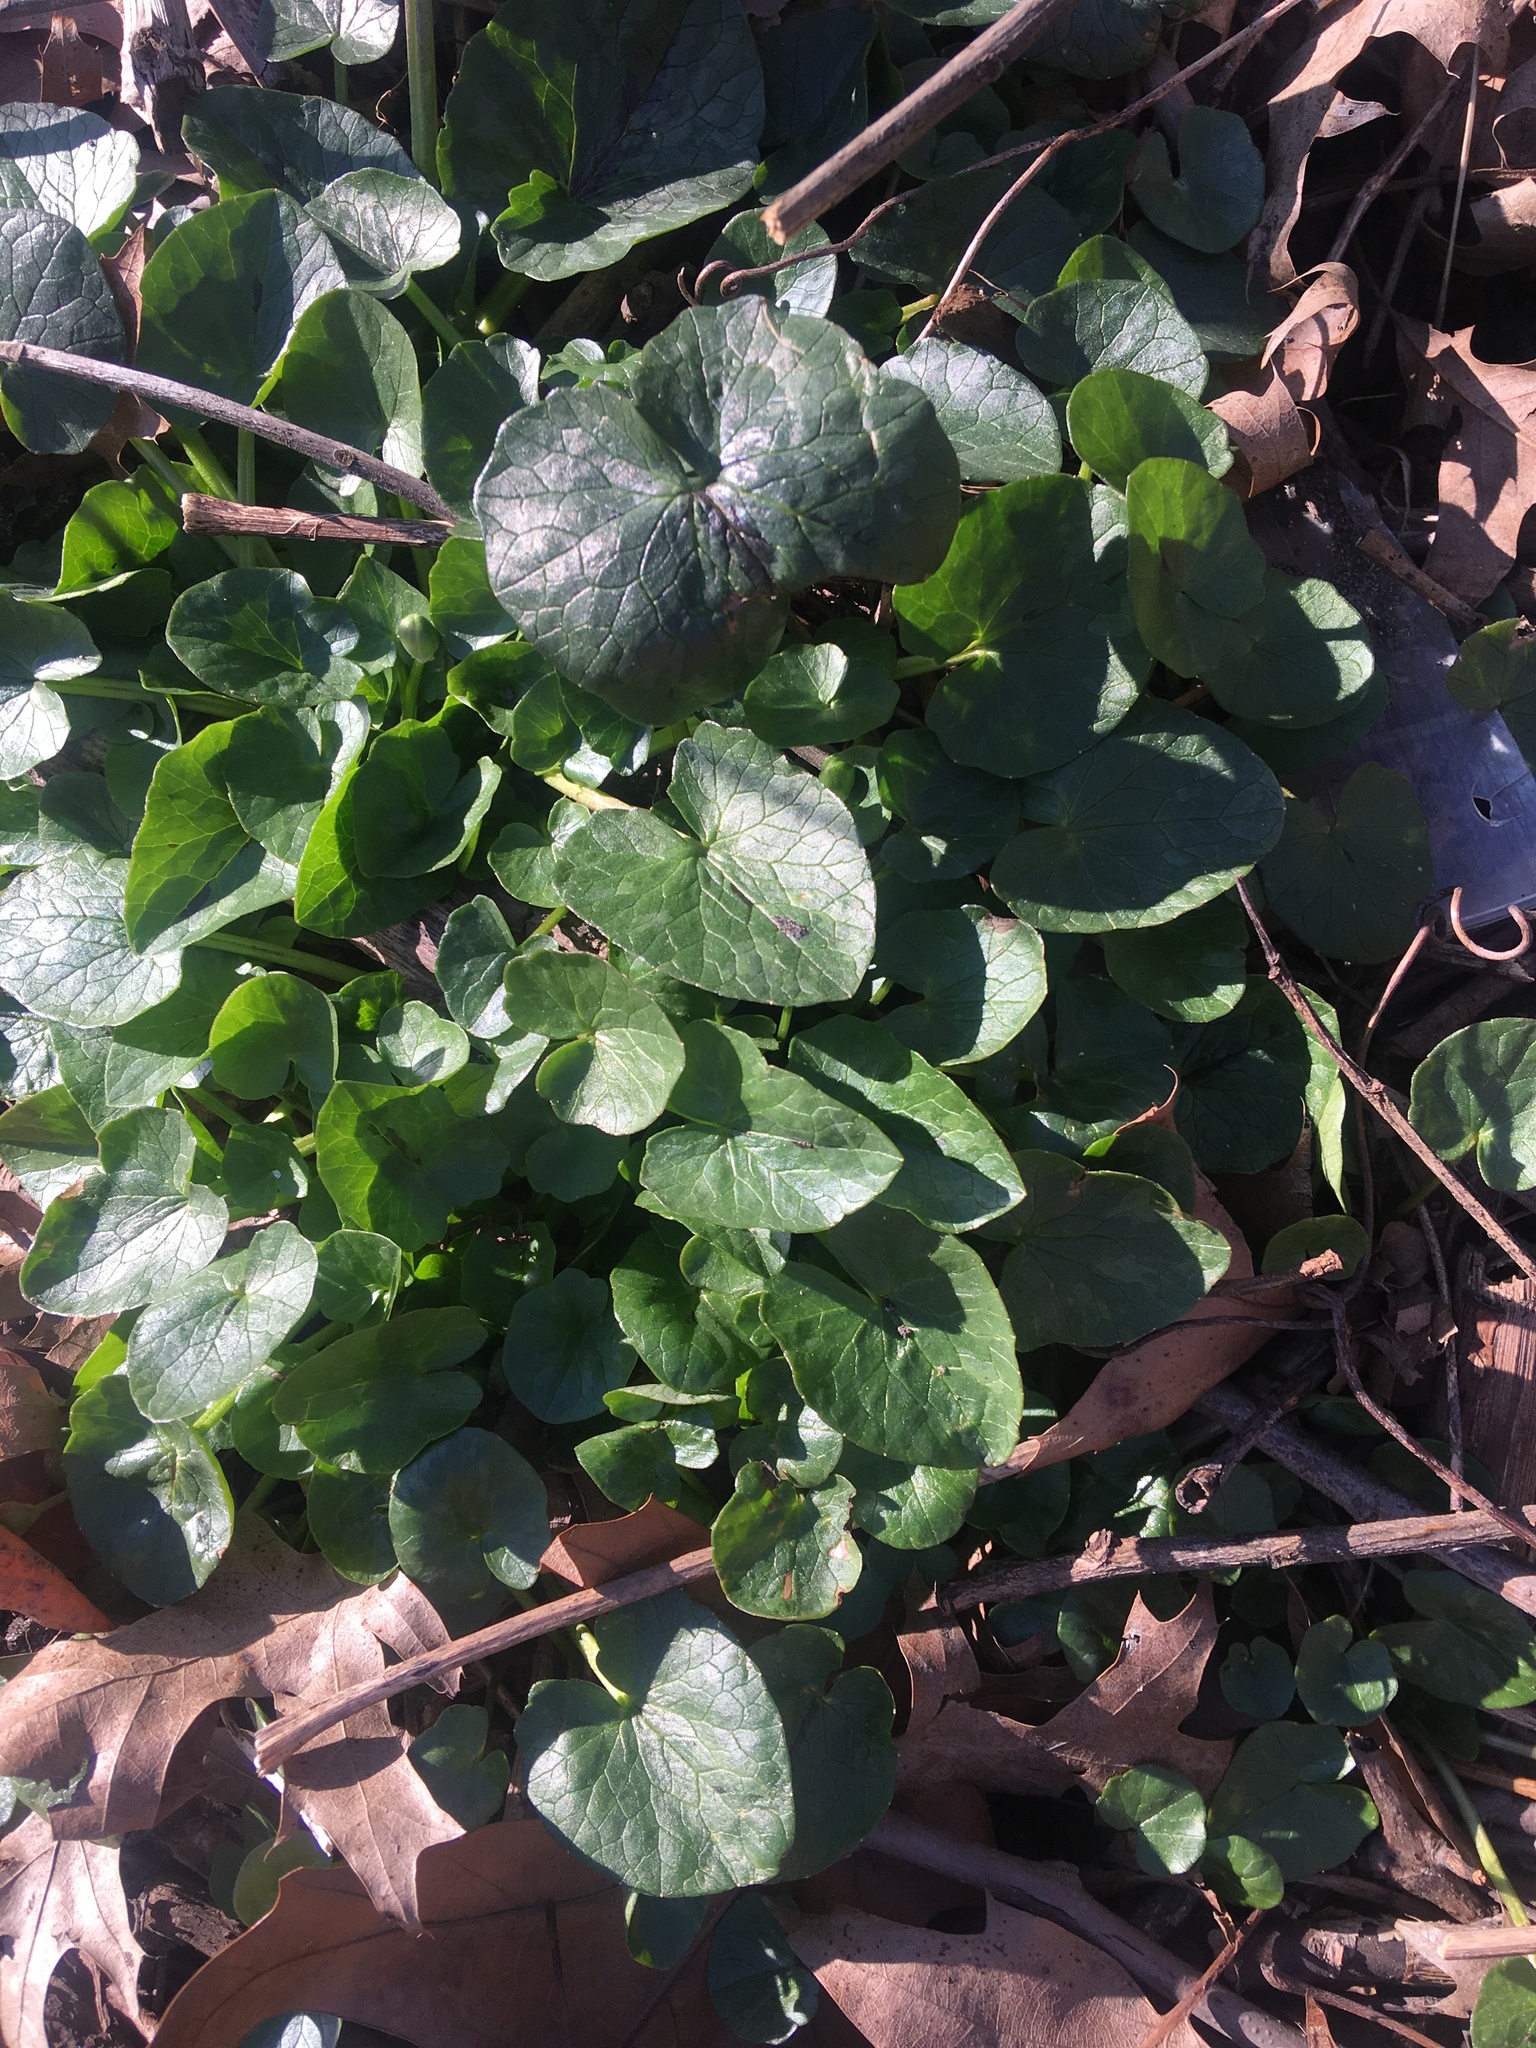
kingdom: Plantae
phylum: Tracheophyta
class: Magnoliopsida
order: Ranunculales
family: Ranunculaceae
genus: Ficaria
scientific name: Ficaria verna
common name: Lesser celandine
